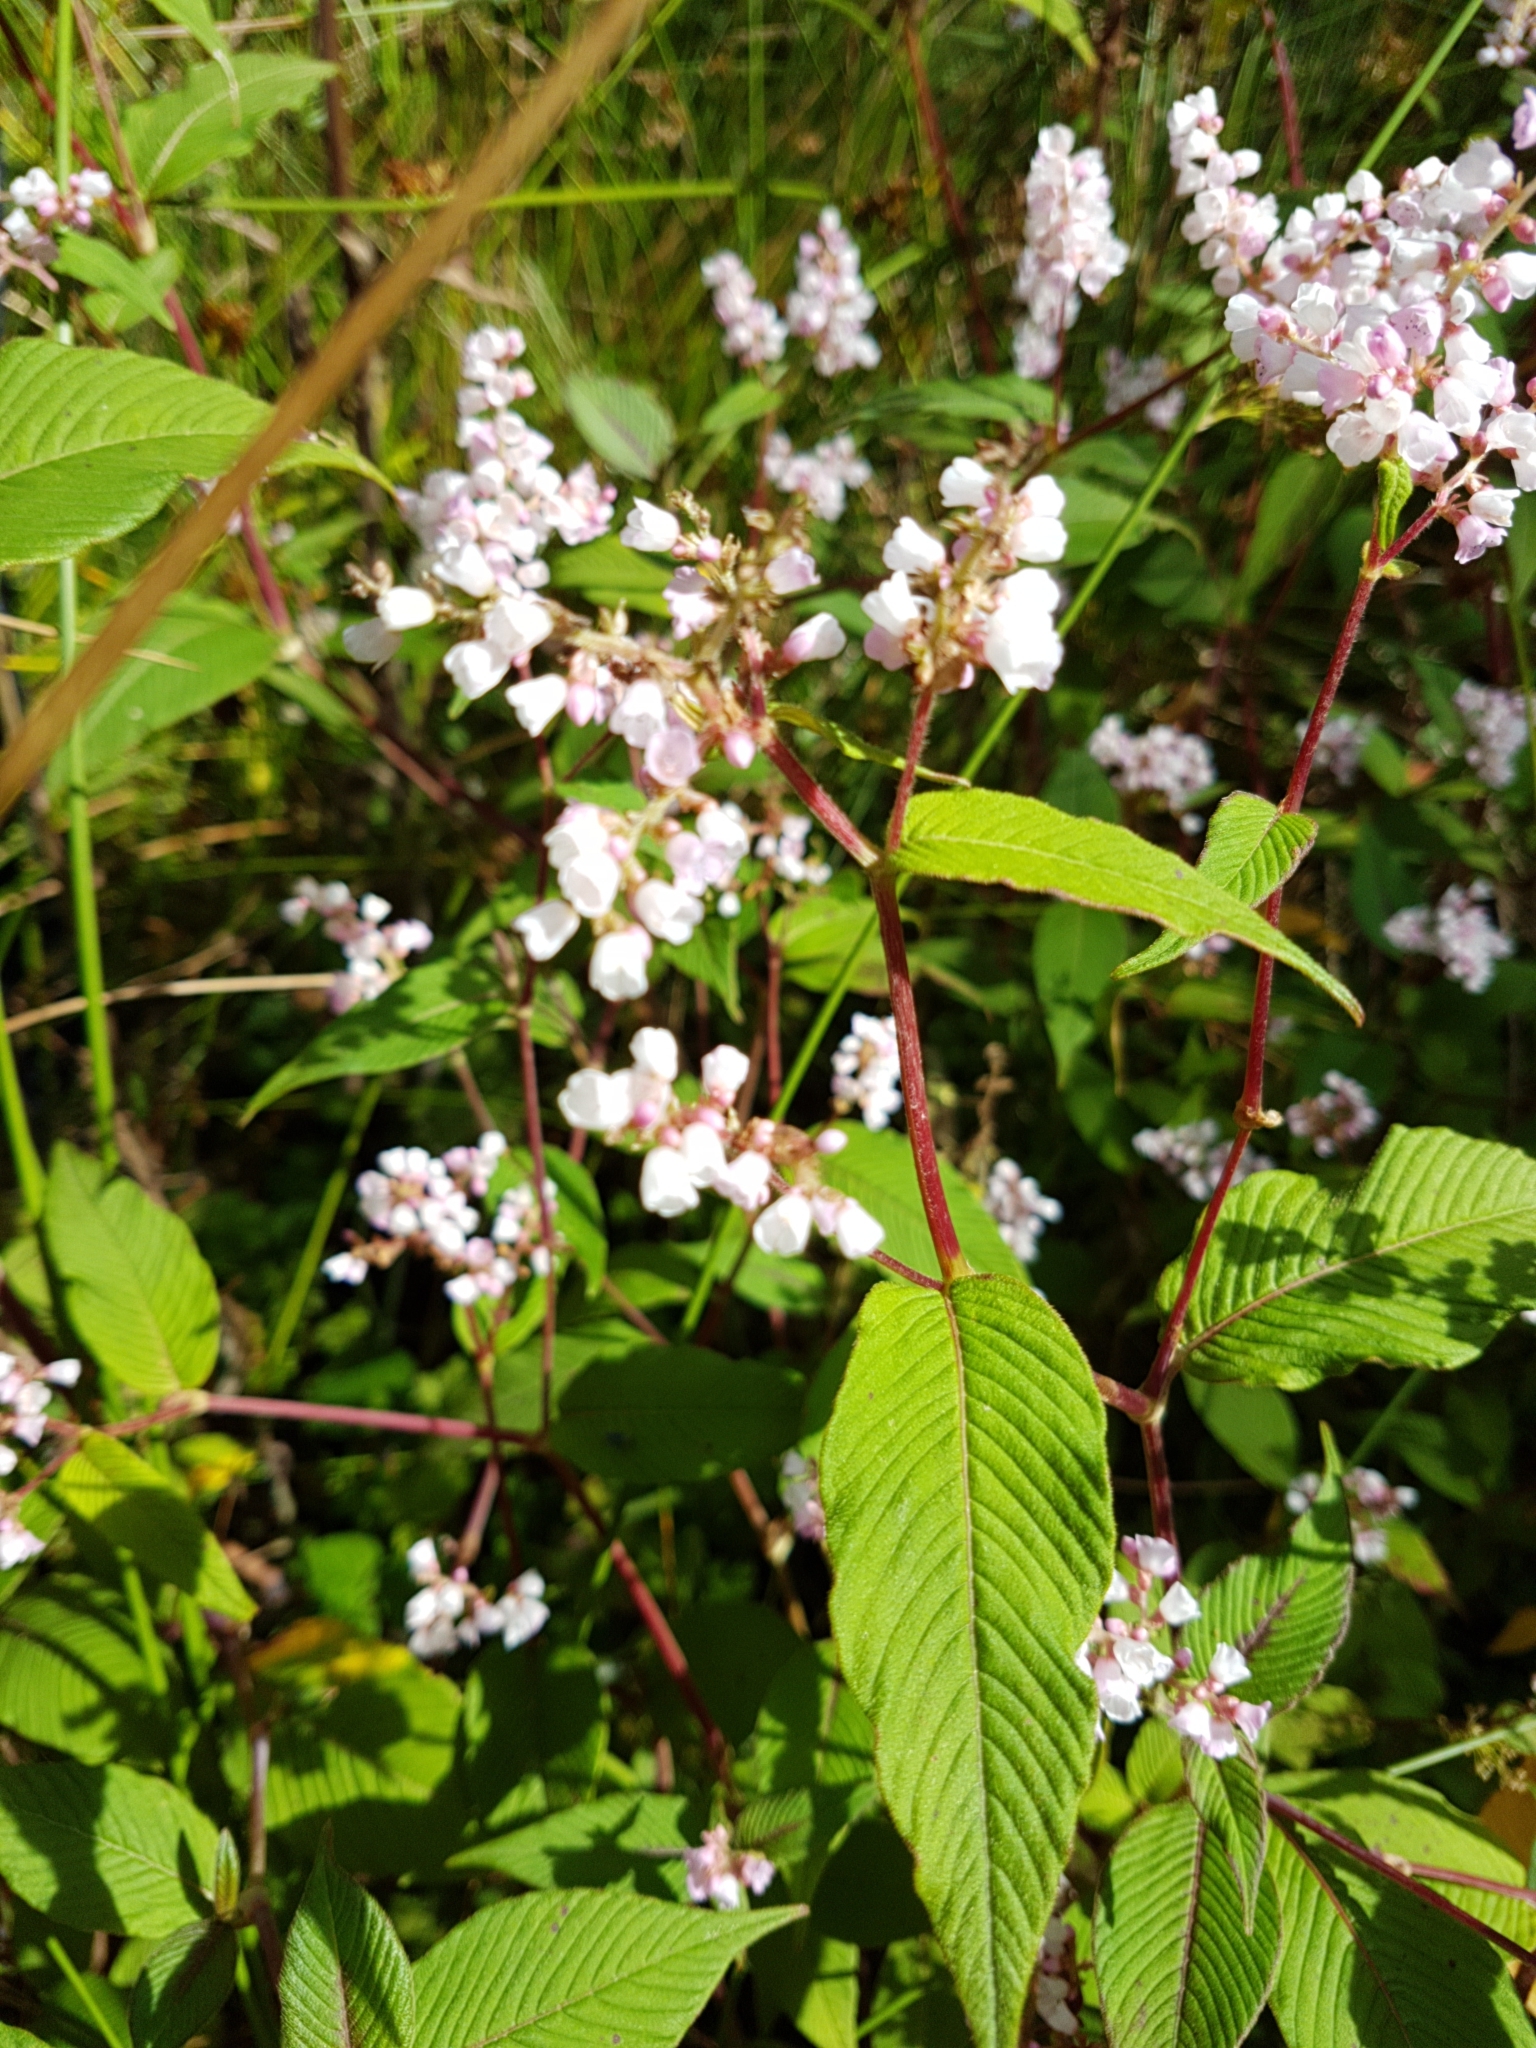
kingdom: Plantae
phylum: Tracheophyta
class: Magnoliopsida
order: Caryophyllales
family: Polygonaceae
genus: Koenigia
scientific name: Koenigia campanulata
